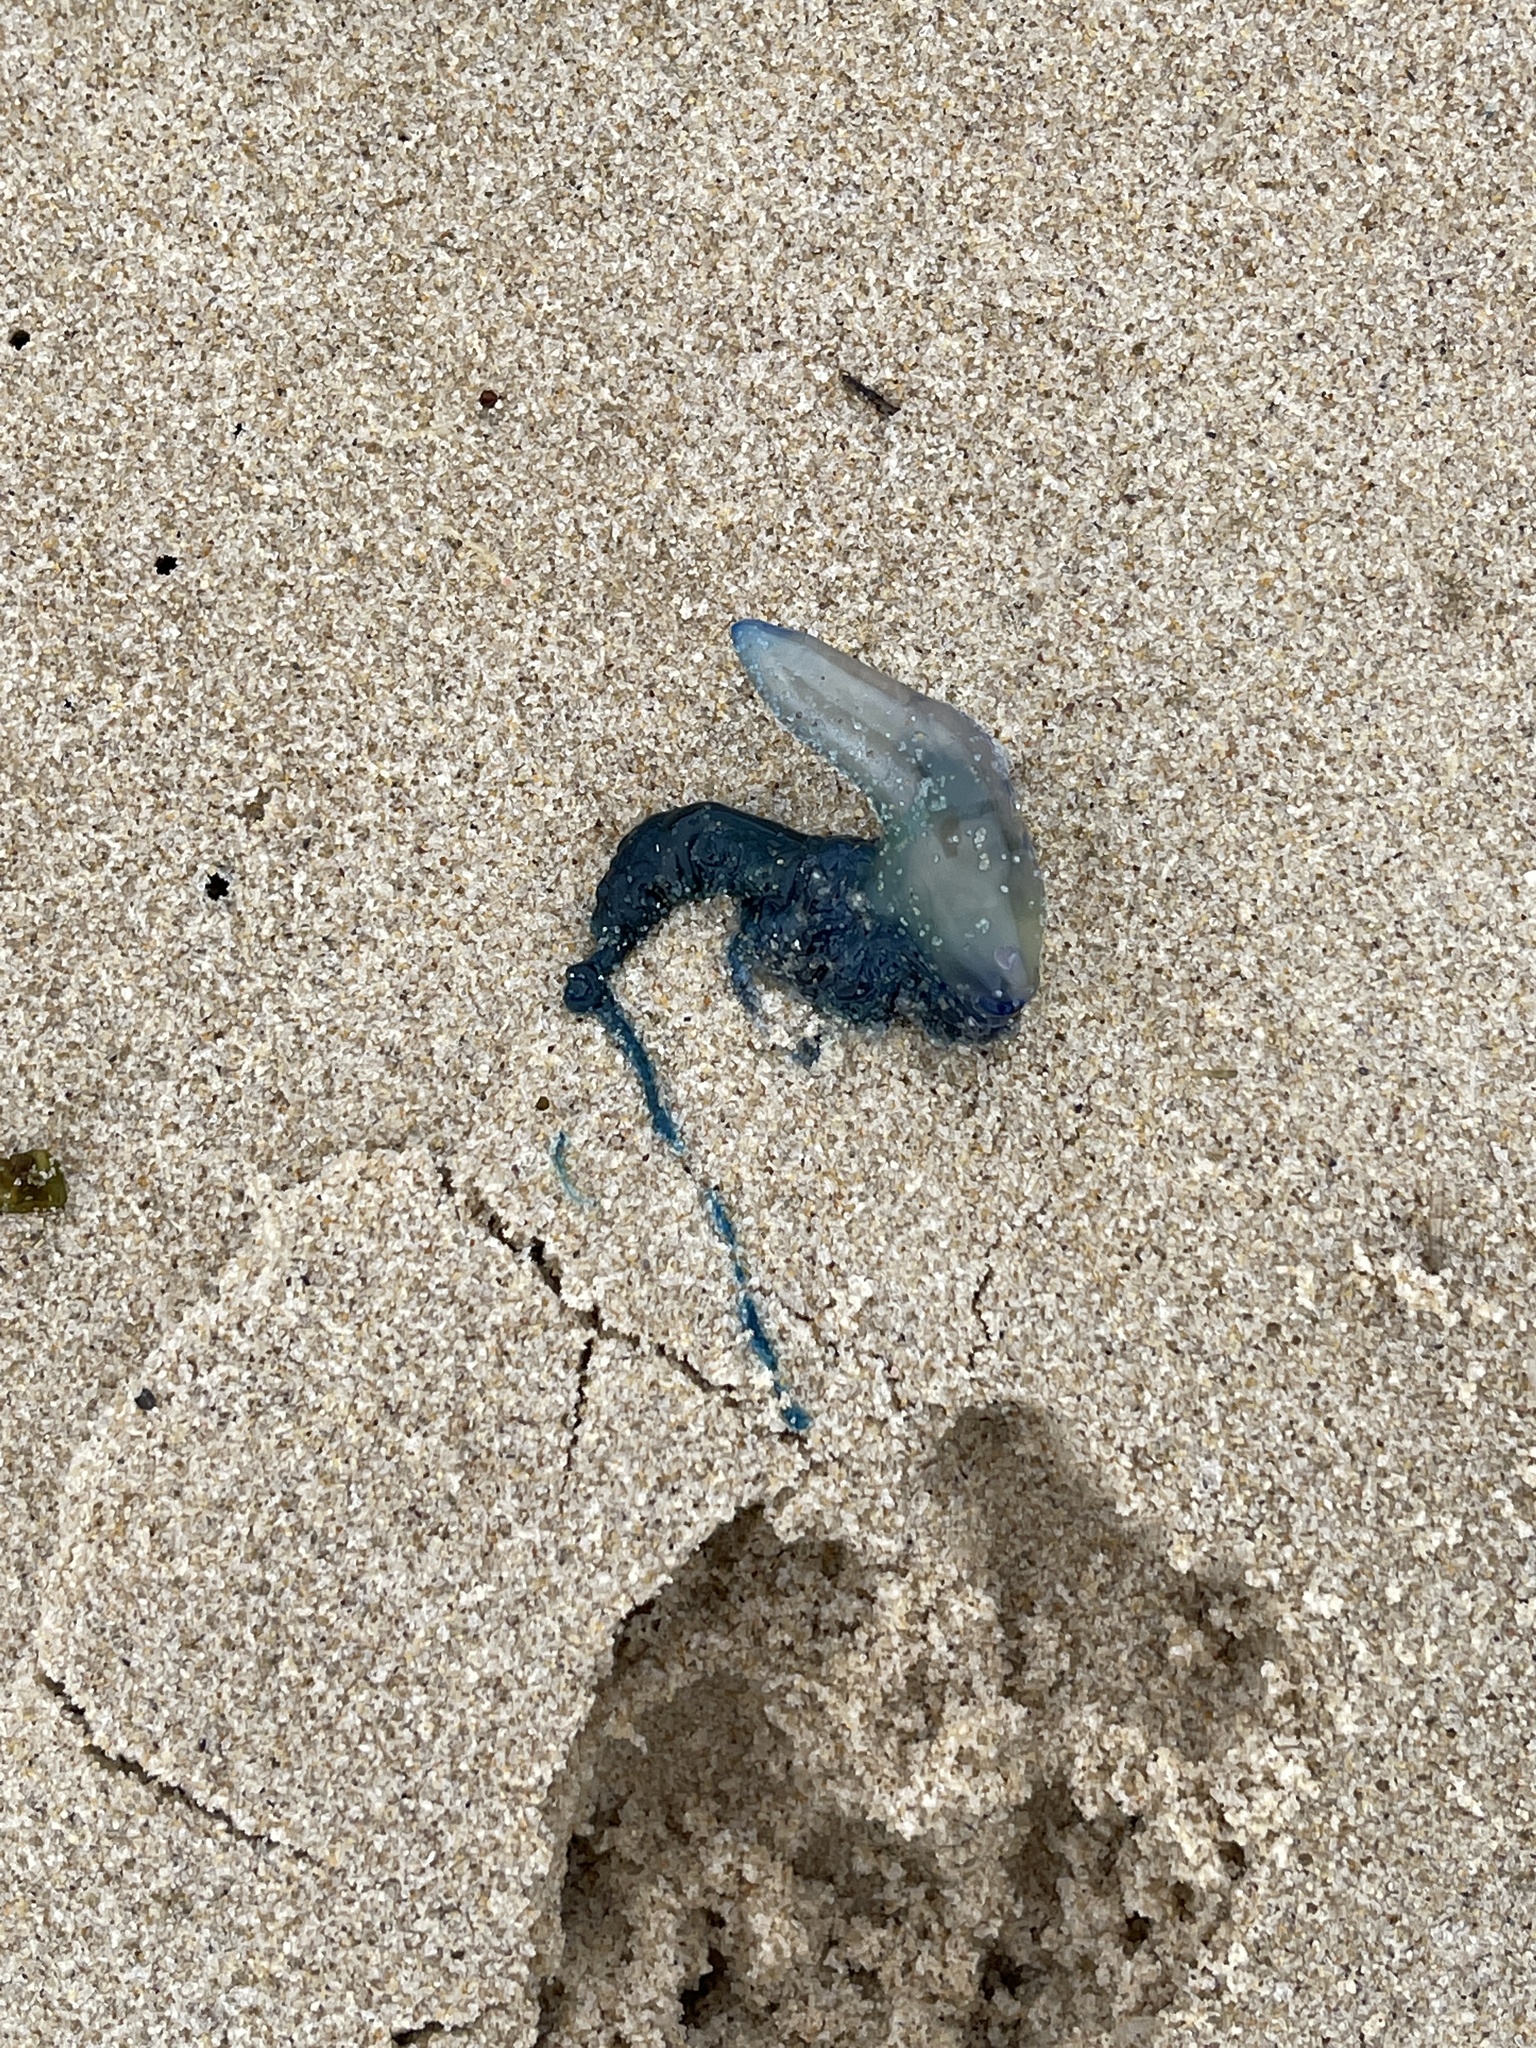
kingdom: Animalia
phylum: Cnidaria
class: Hydrozoa
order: Siphonophorae
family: Physaliidae
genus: Physalia
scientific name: Physalia physalis
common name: Portuguese man-of-war
